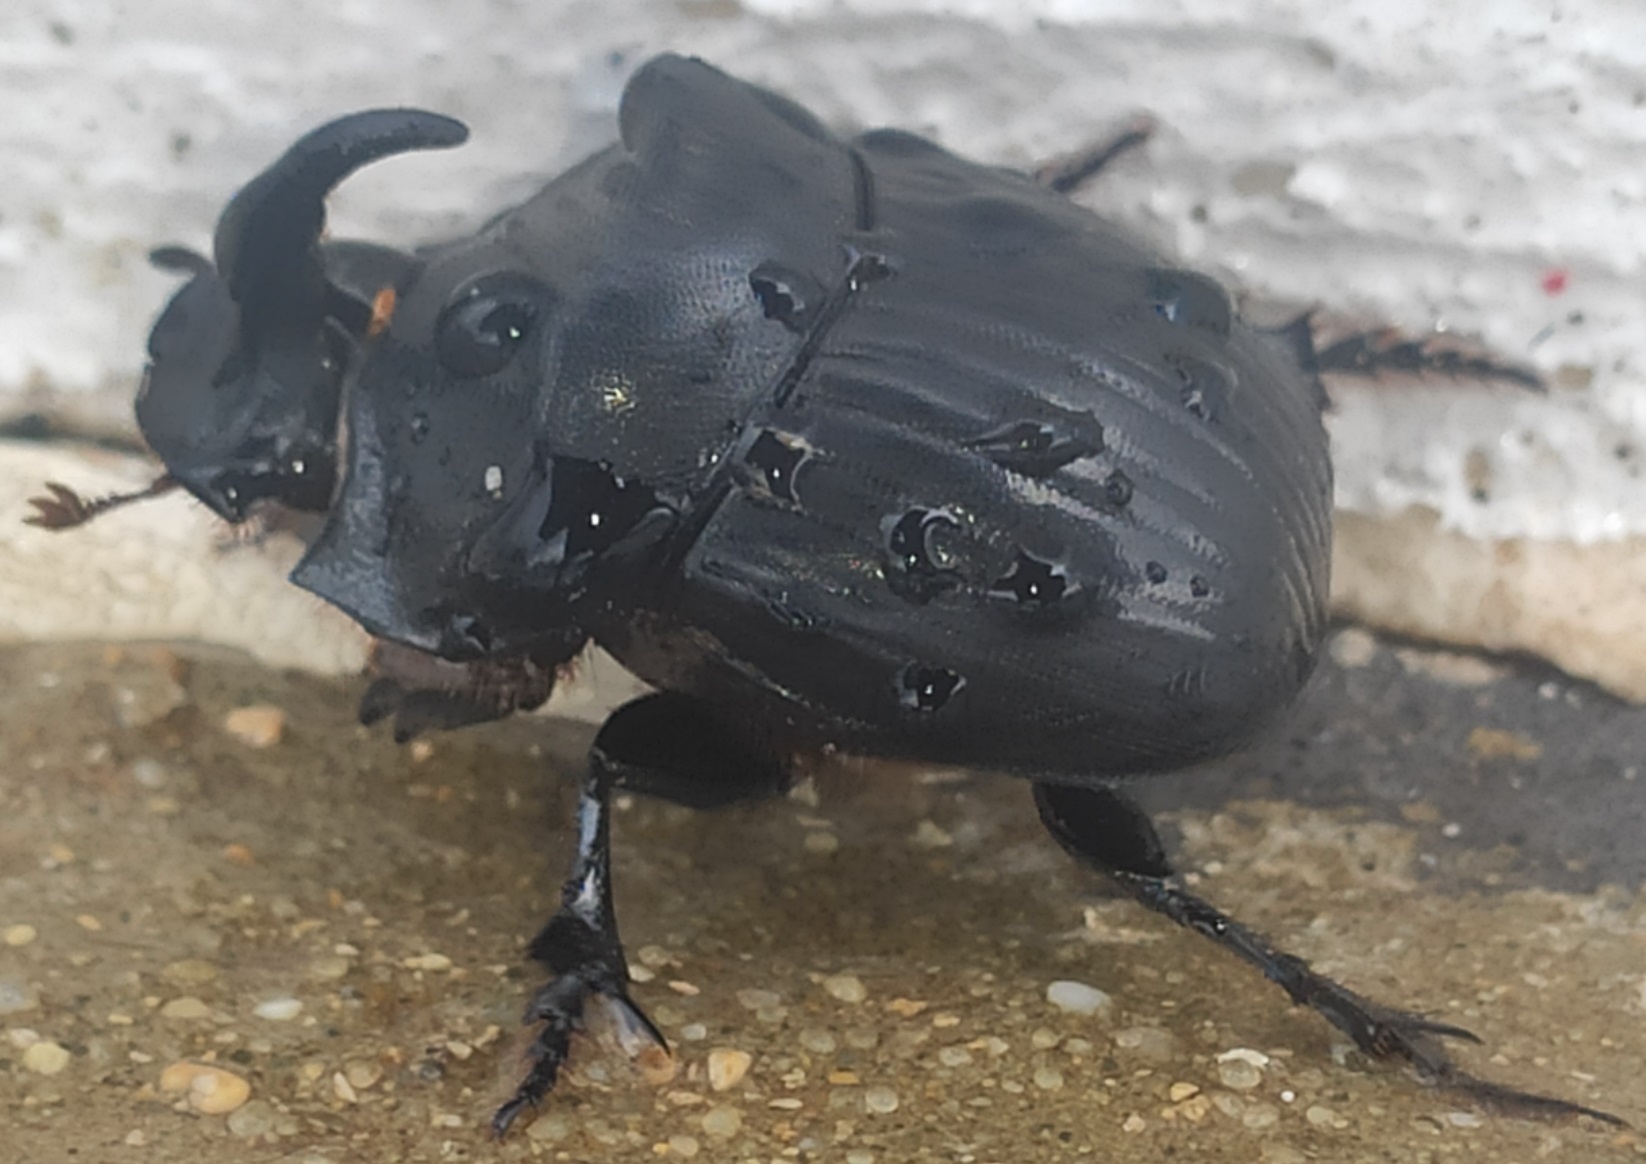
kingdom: Animalia
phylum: Arthropoda
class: Insecta
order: Coleoptera
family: Scarabaeidae
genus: Copris
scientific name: Copris hispanus
